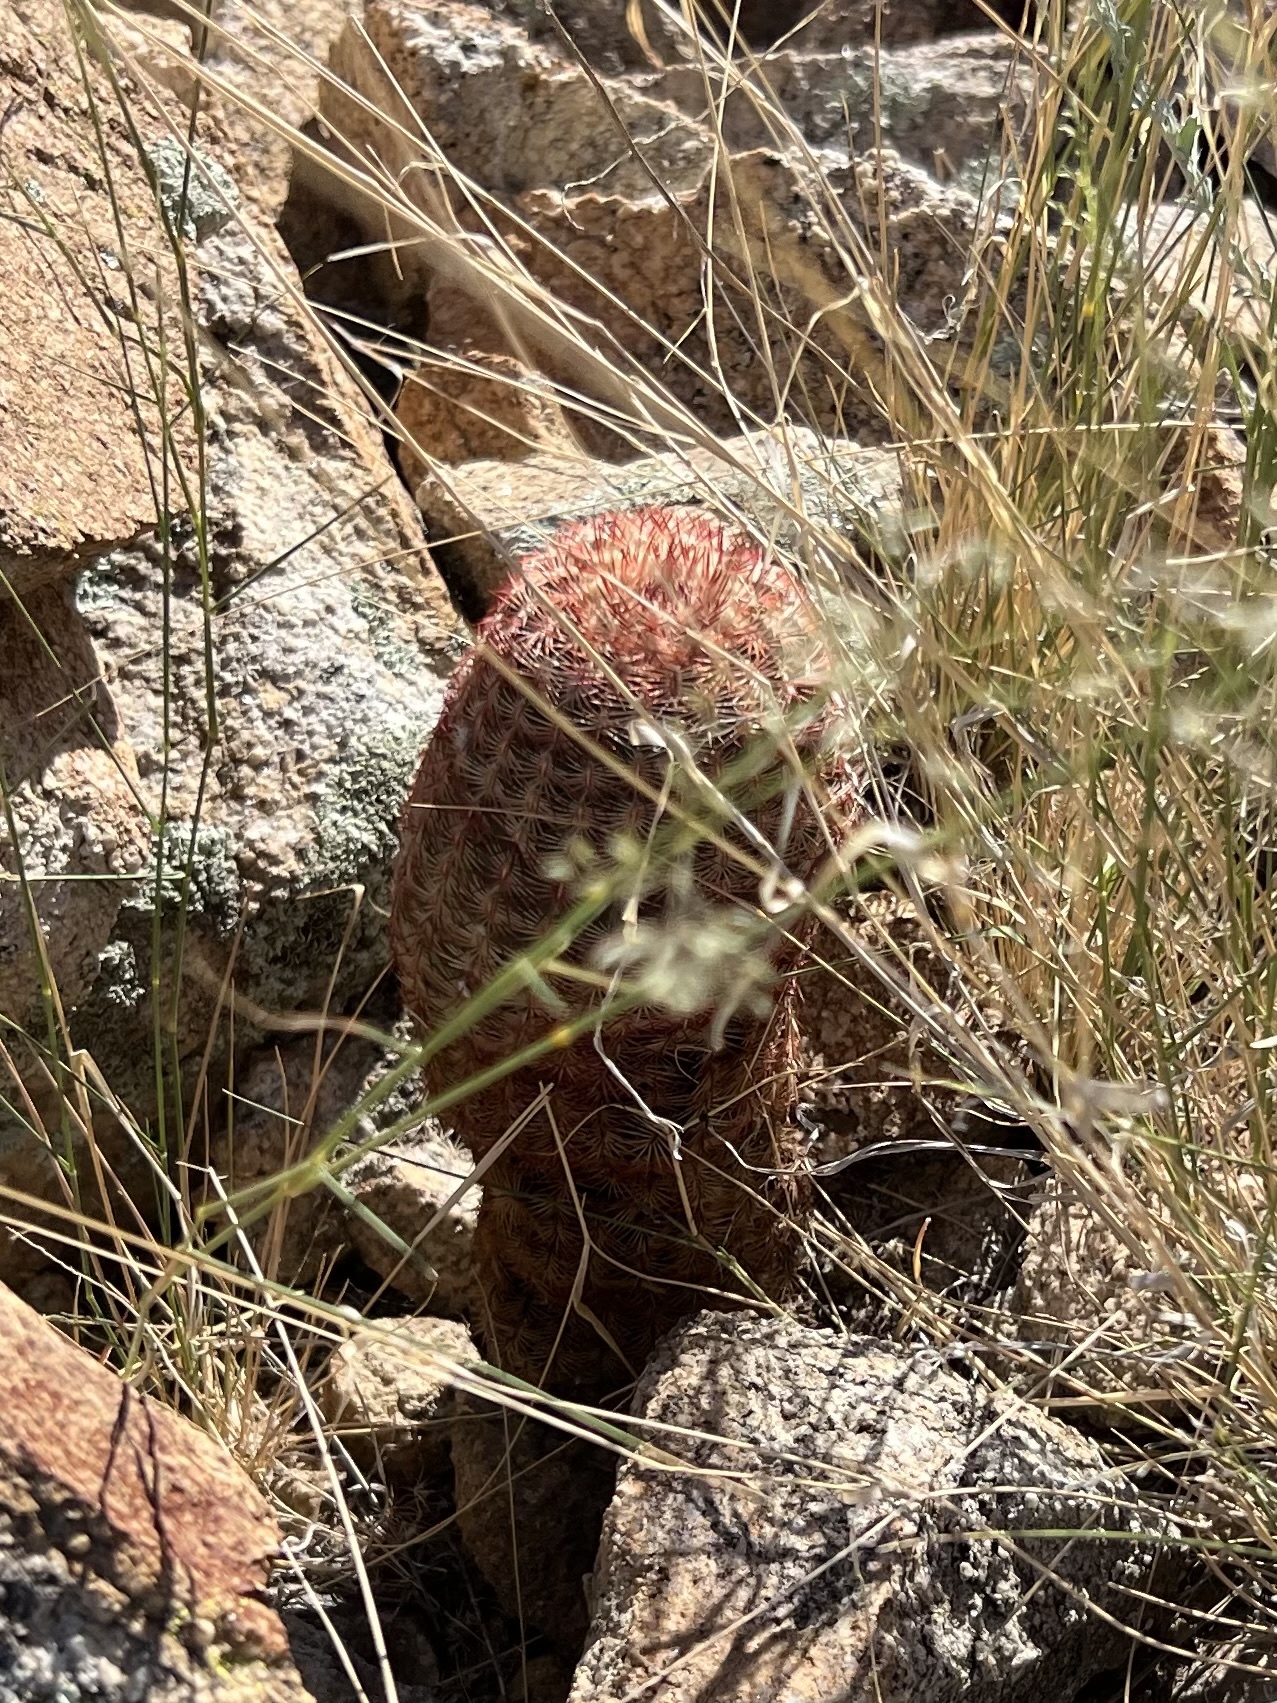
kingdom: Plantae
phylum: Tracheophyta
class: Magnoliopsida
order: Caryophyllales
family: Cactaceae
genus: Echinocereus
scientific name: Echinocereus rigidissimus
